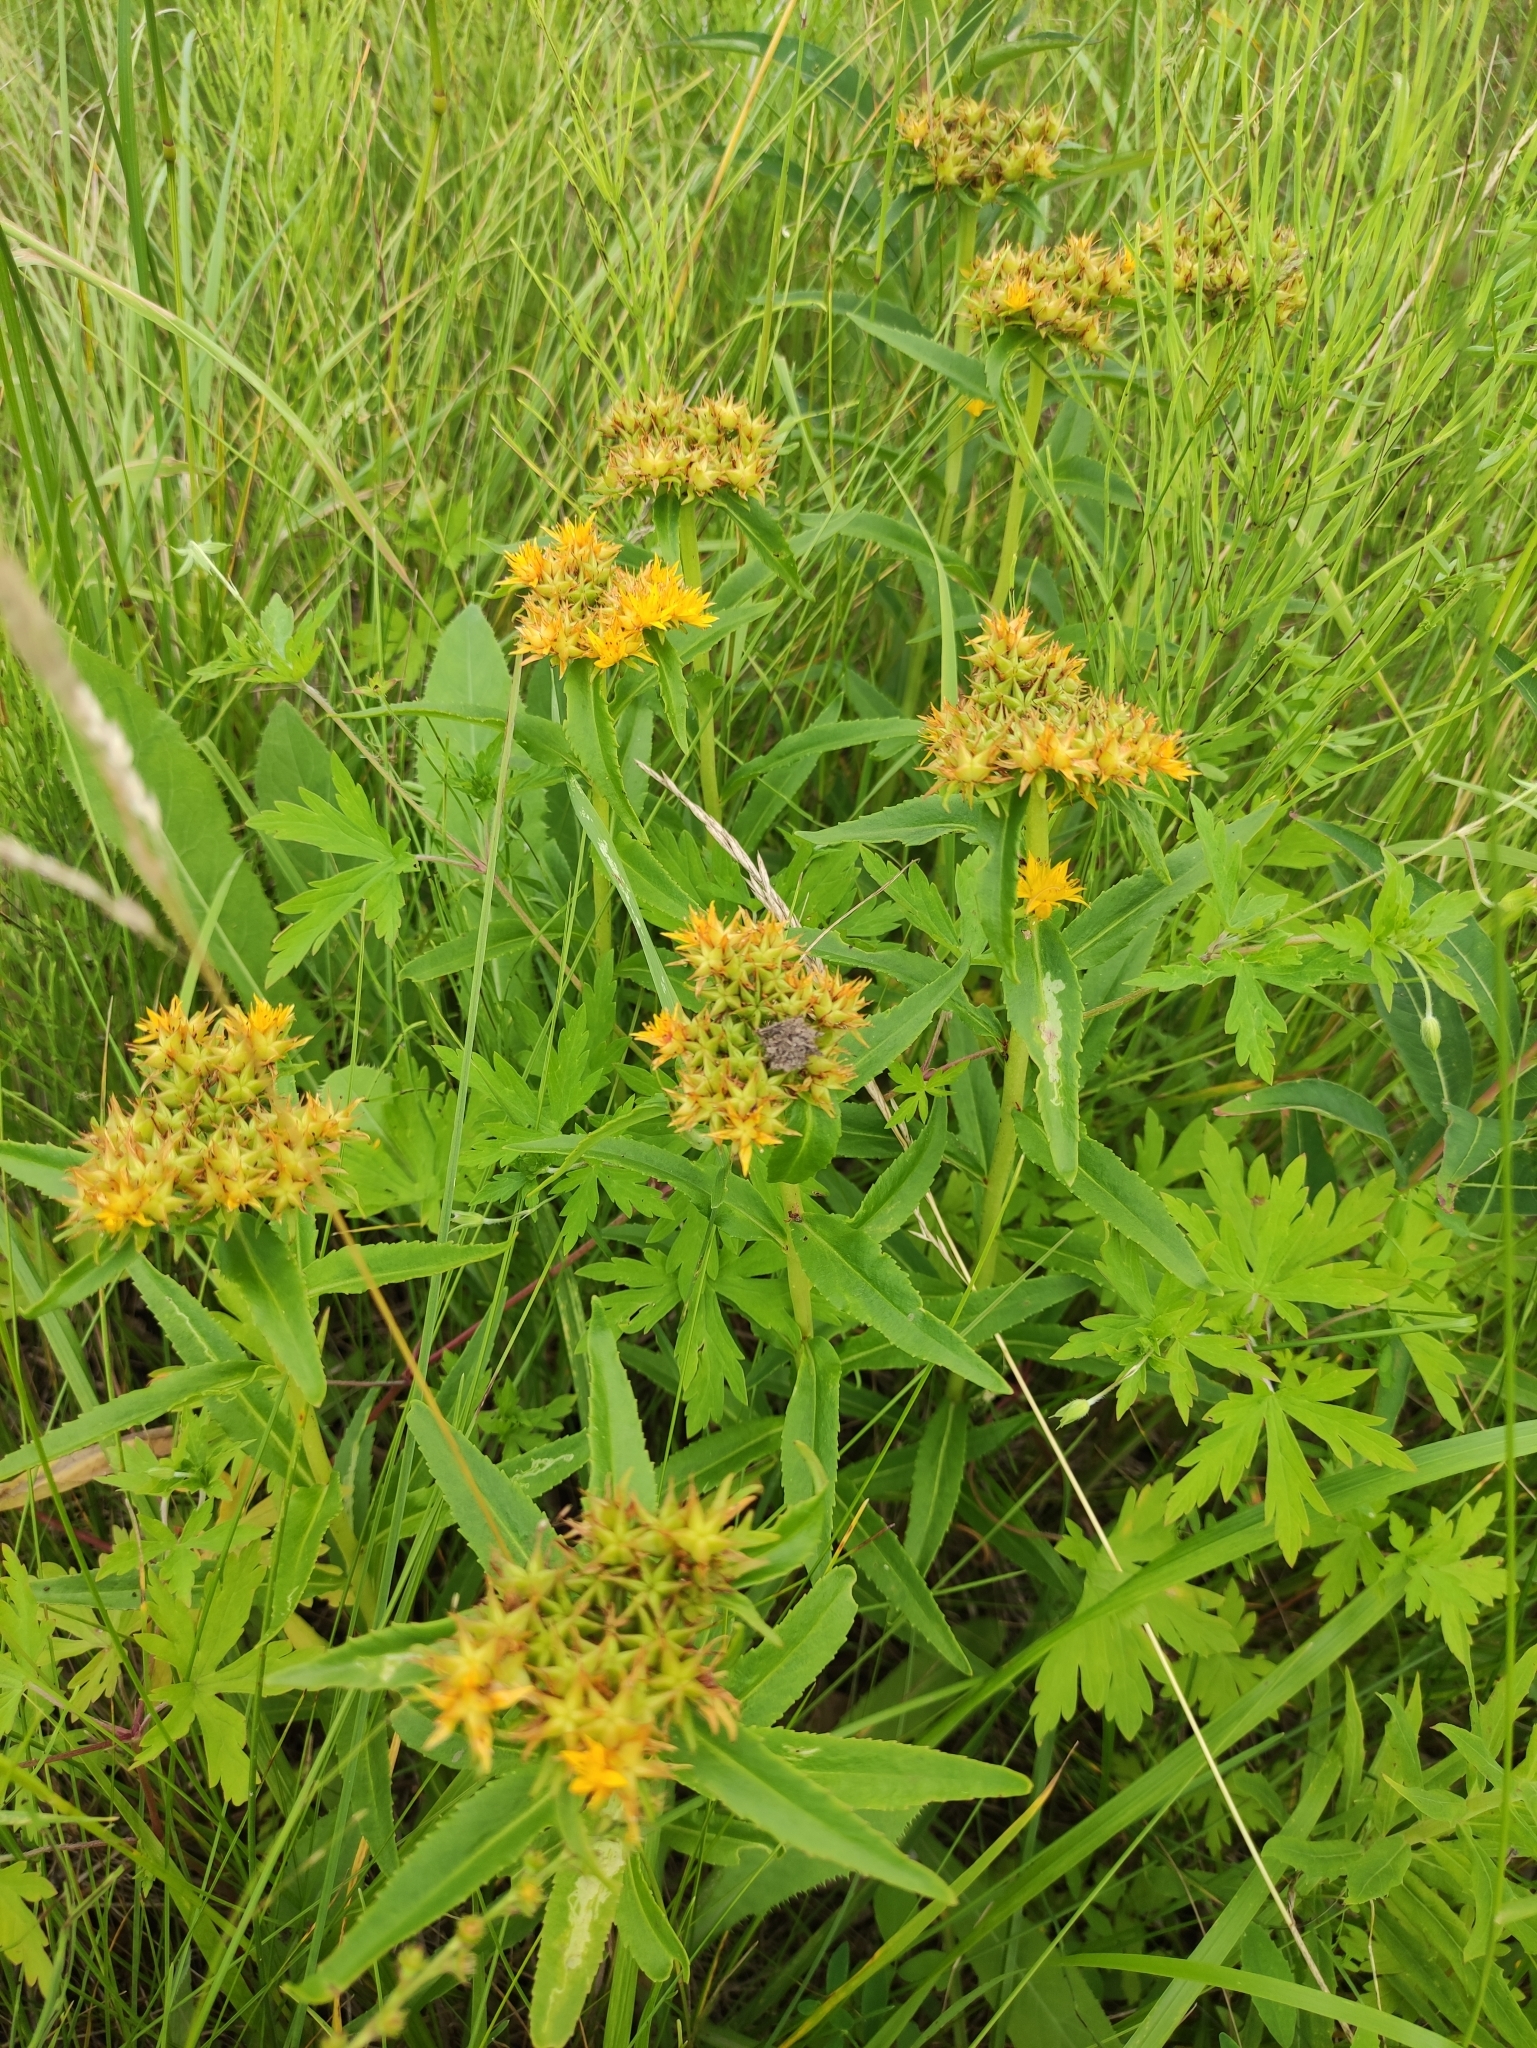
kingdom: Plantae
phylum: Tracheophyta
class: Magnoliopsida
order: Saxifragales
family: Crassulaceae
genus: Phedimus
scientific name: Phedimus aizoon
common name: Orpin aizoon
